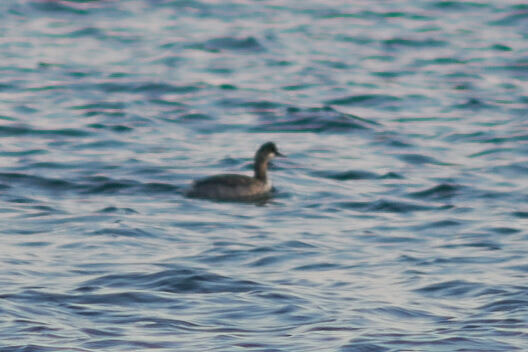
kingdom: Animalia
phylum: Chordata
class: Aves
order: Podicipediformes
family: Podicipedidae
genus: Podiceps
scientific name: Podiceps nigricollis
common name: Black-necked grebe
